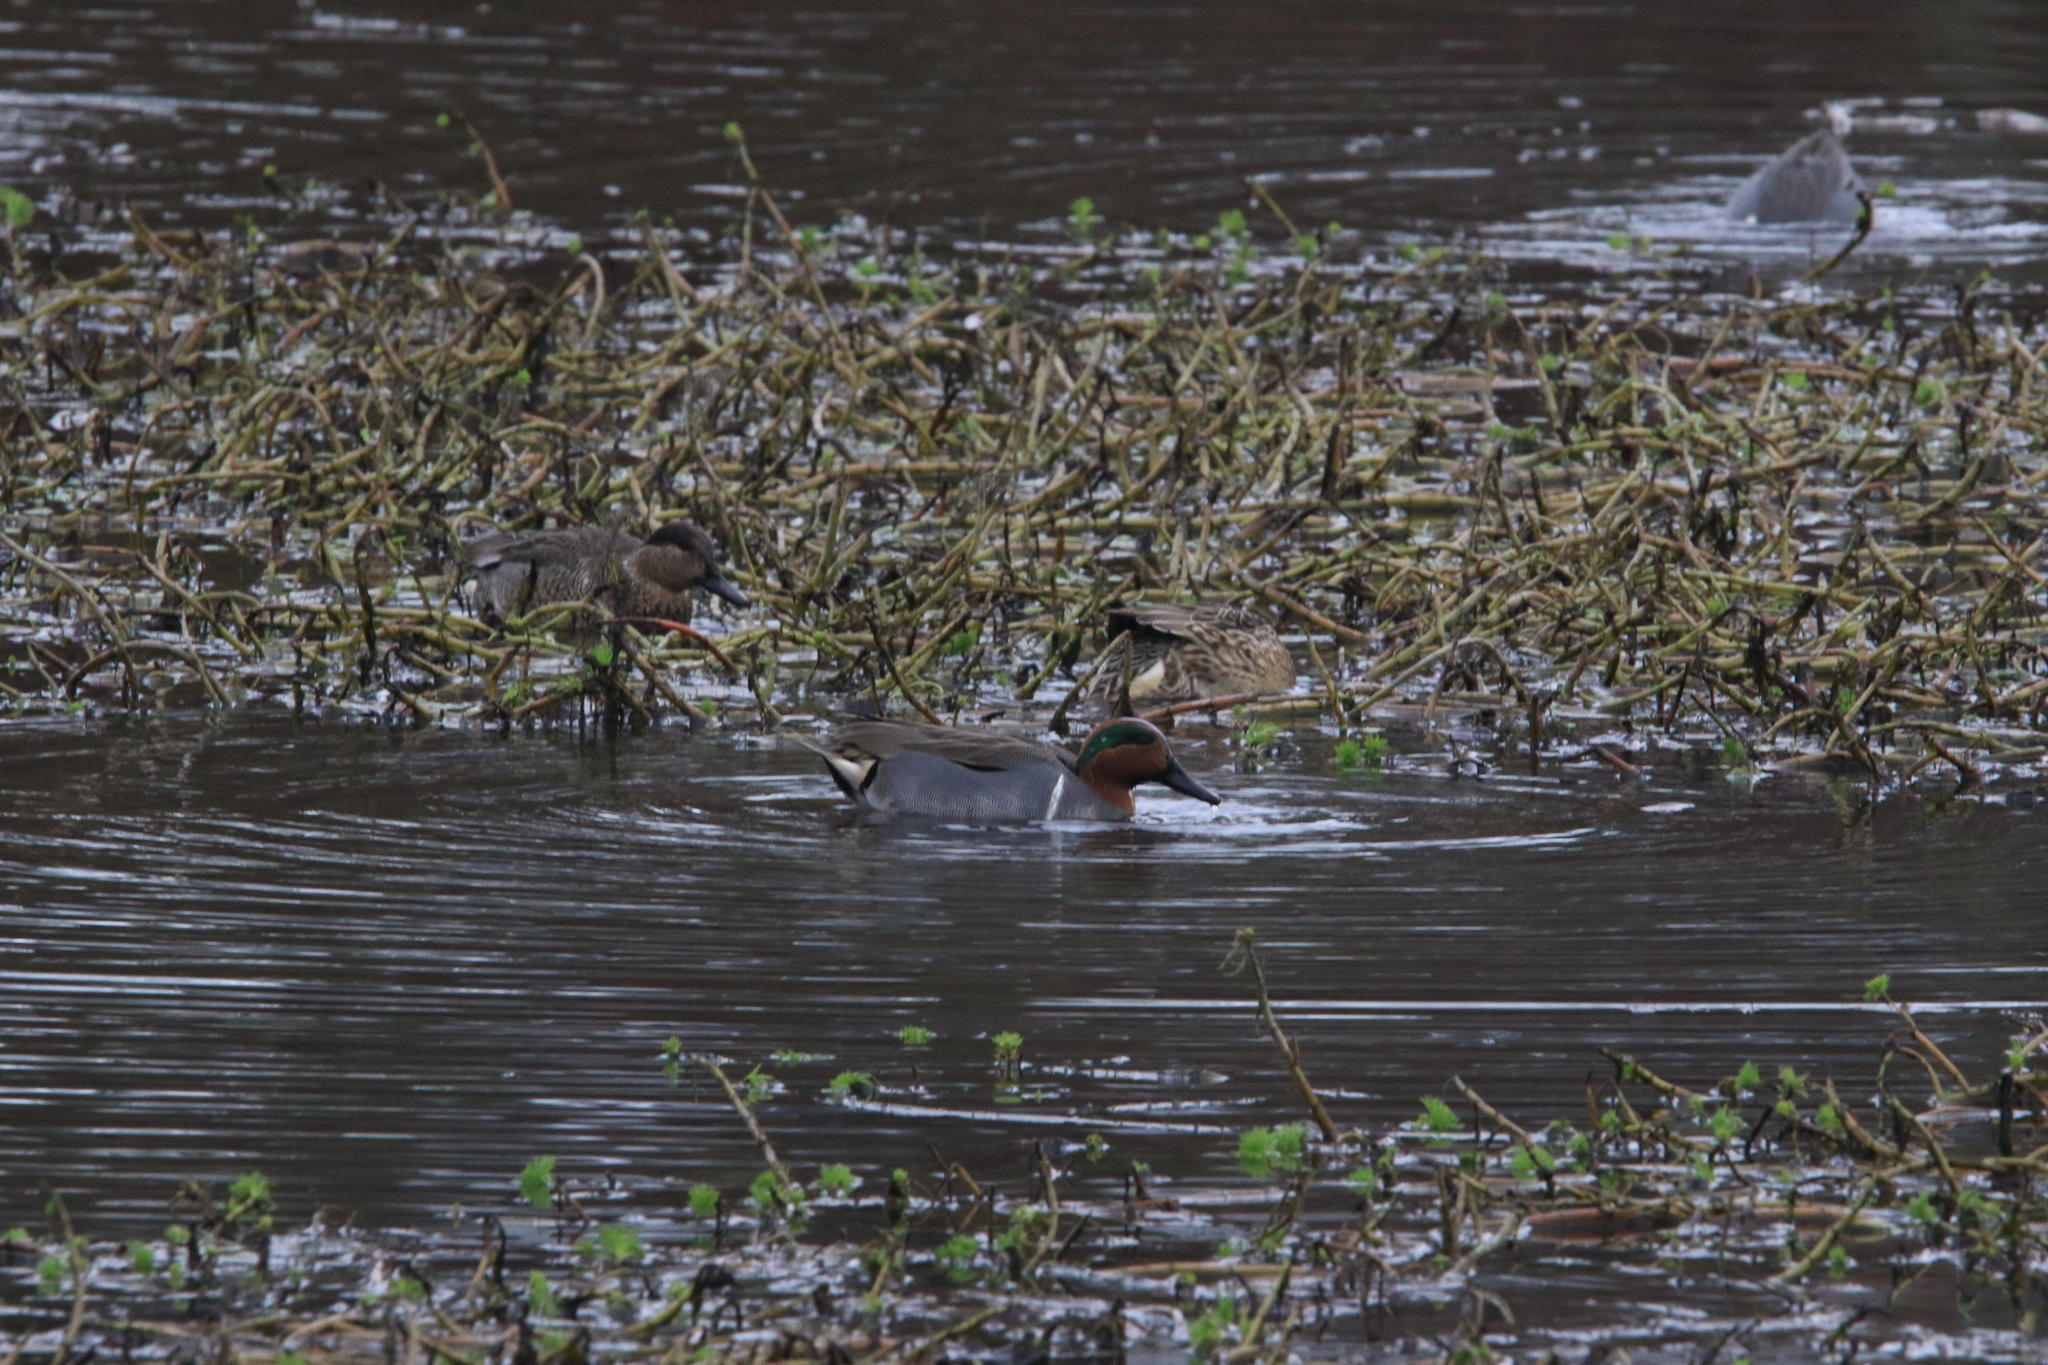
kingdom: Animalia
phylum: Chordata
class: Aves
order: Anseriformes
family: Anatidae
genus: Anas
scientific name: Anas crecca
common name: Eurasian teal
